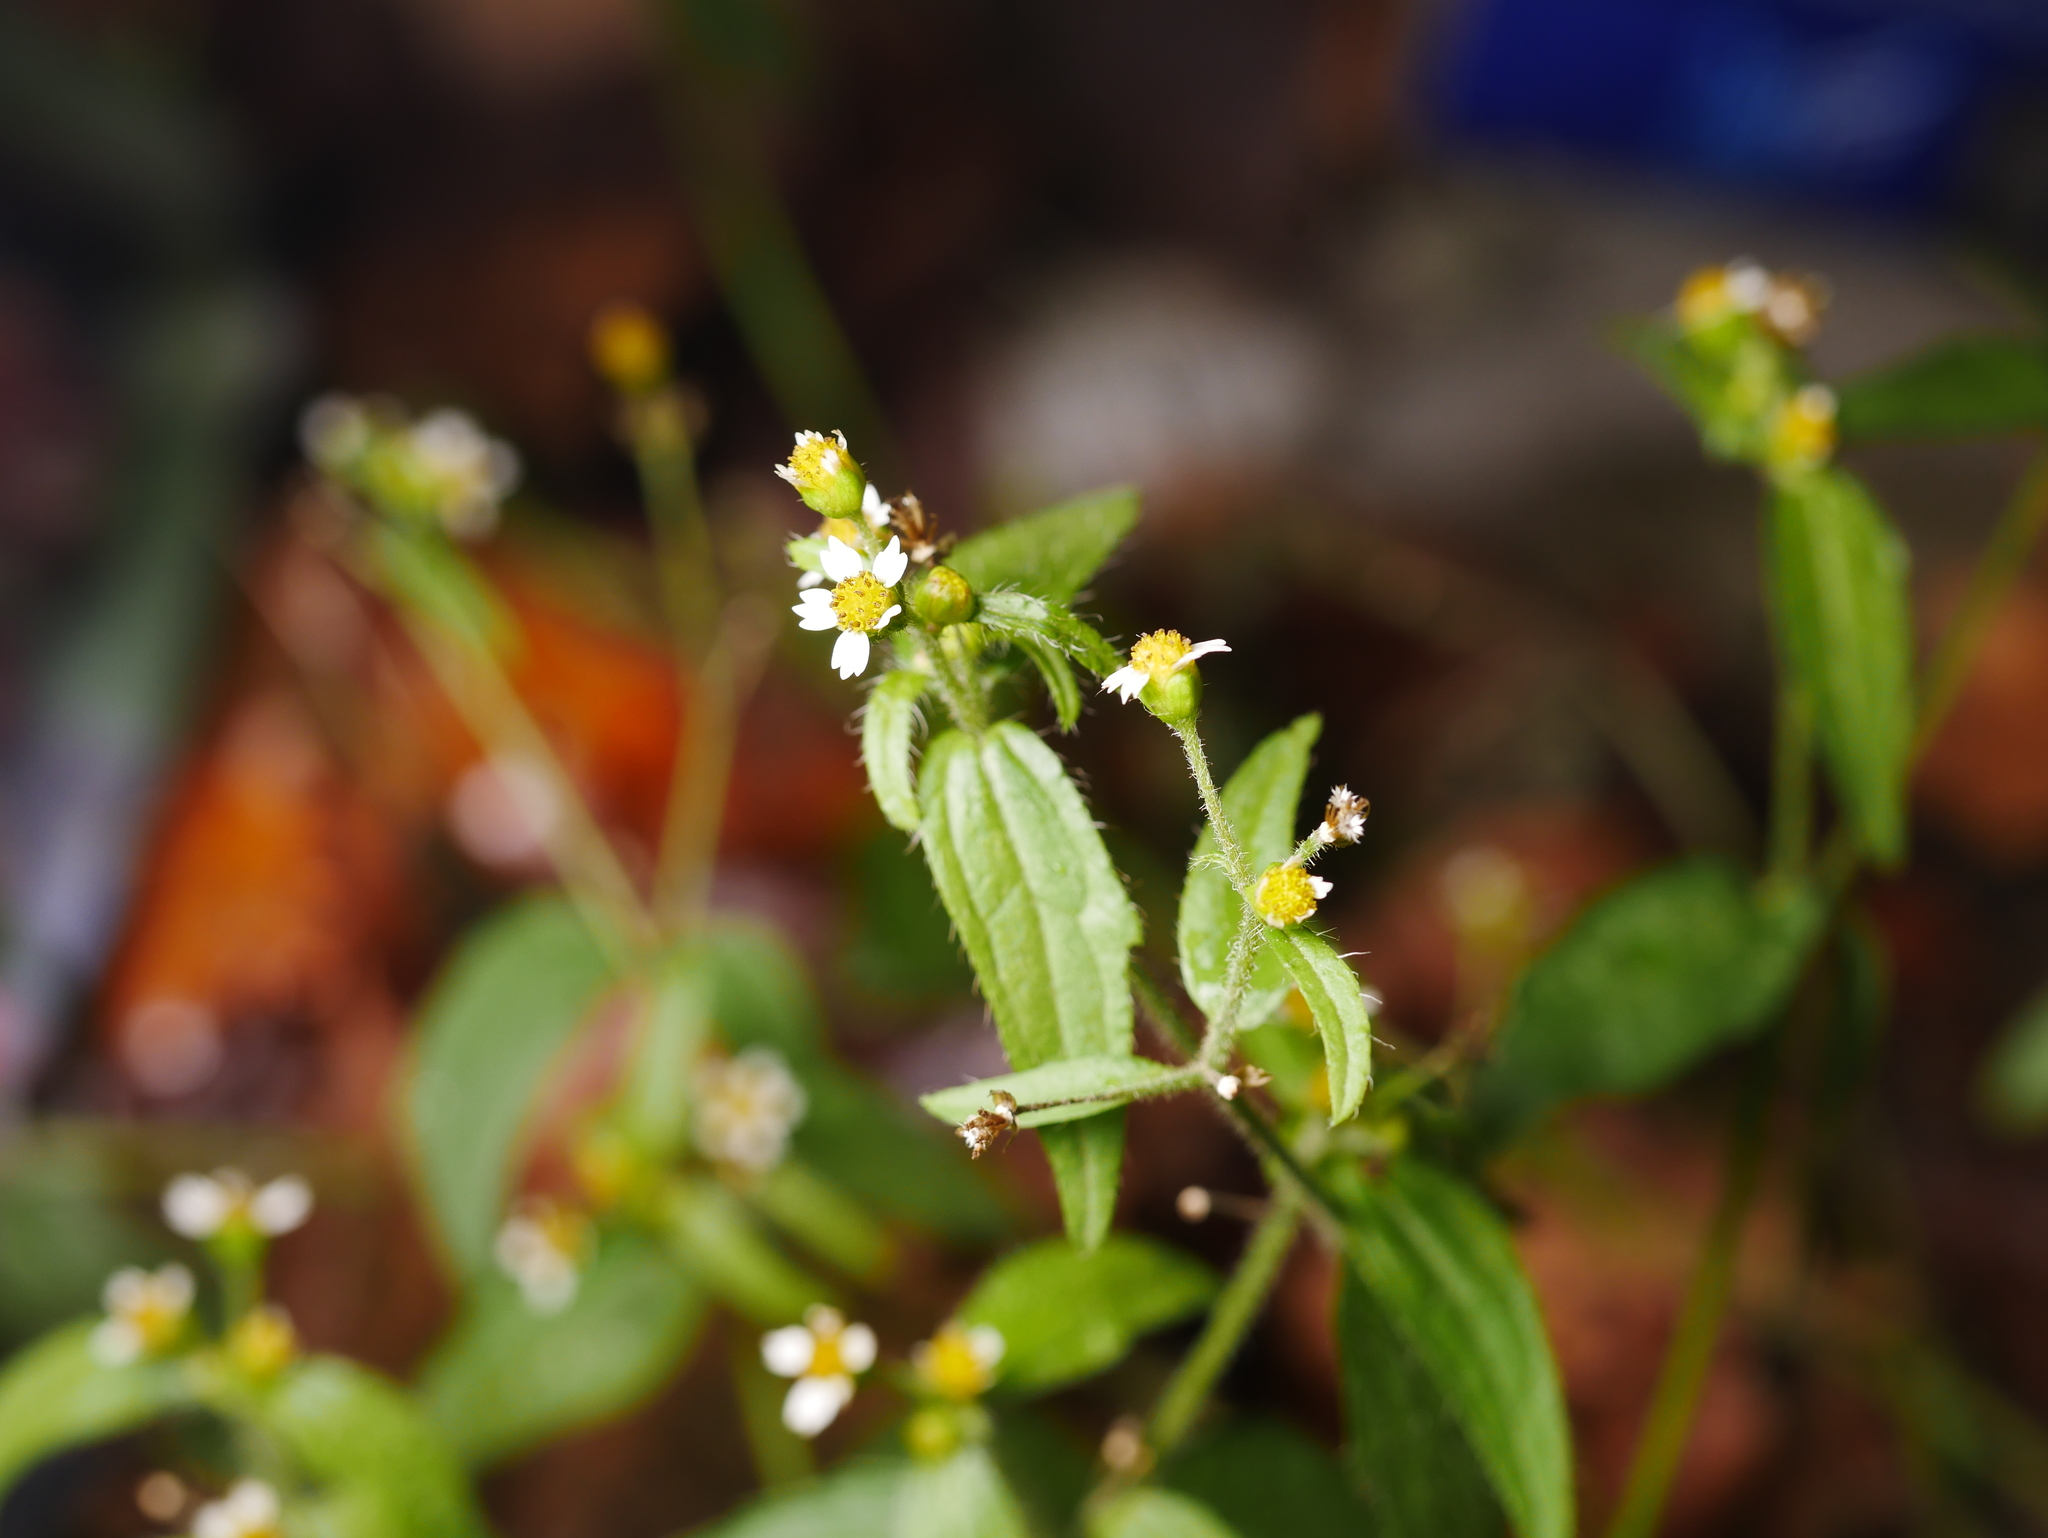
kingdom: Plantae
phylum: Tracheophyta
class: Magnoliopsida
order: Asterales
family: Asteraceae
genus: Galinsoga
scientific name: Galinsoga quadriradiata
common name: Shaggy soldier
